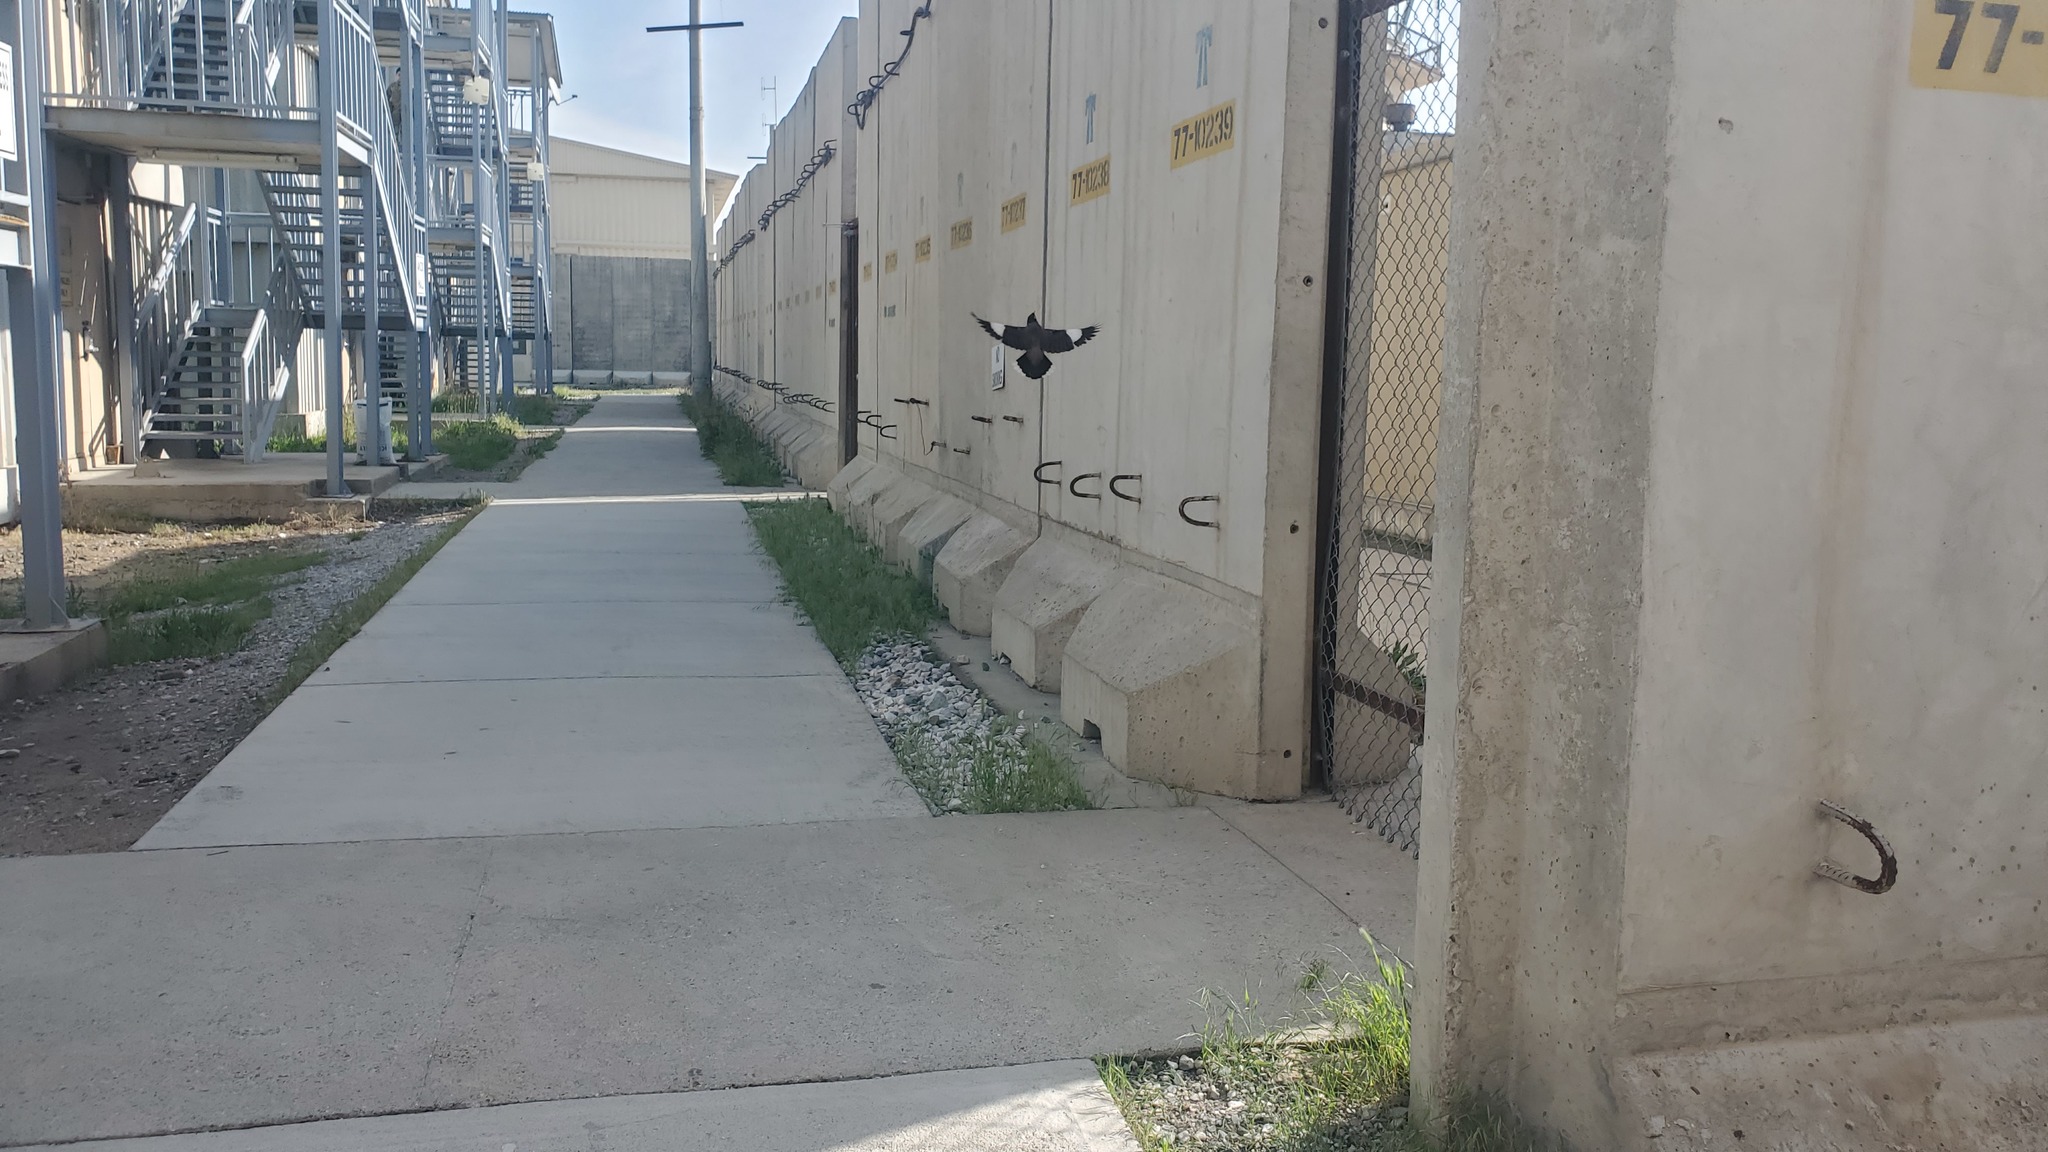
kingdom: Animalia
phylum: Chordata
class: Aves
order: Passeriformes
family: Sturnidae
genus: Acridotheres
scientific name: Acridotheres tristis
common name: Common myna
